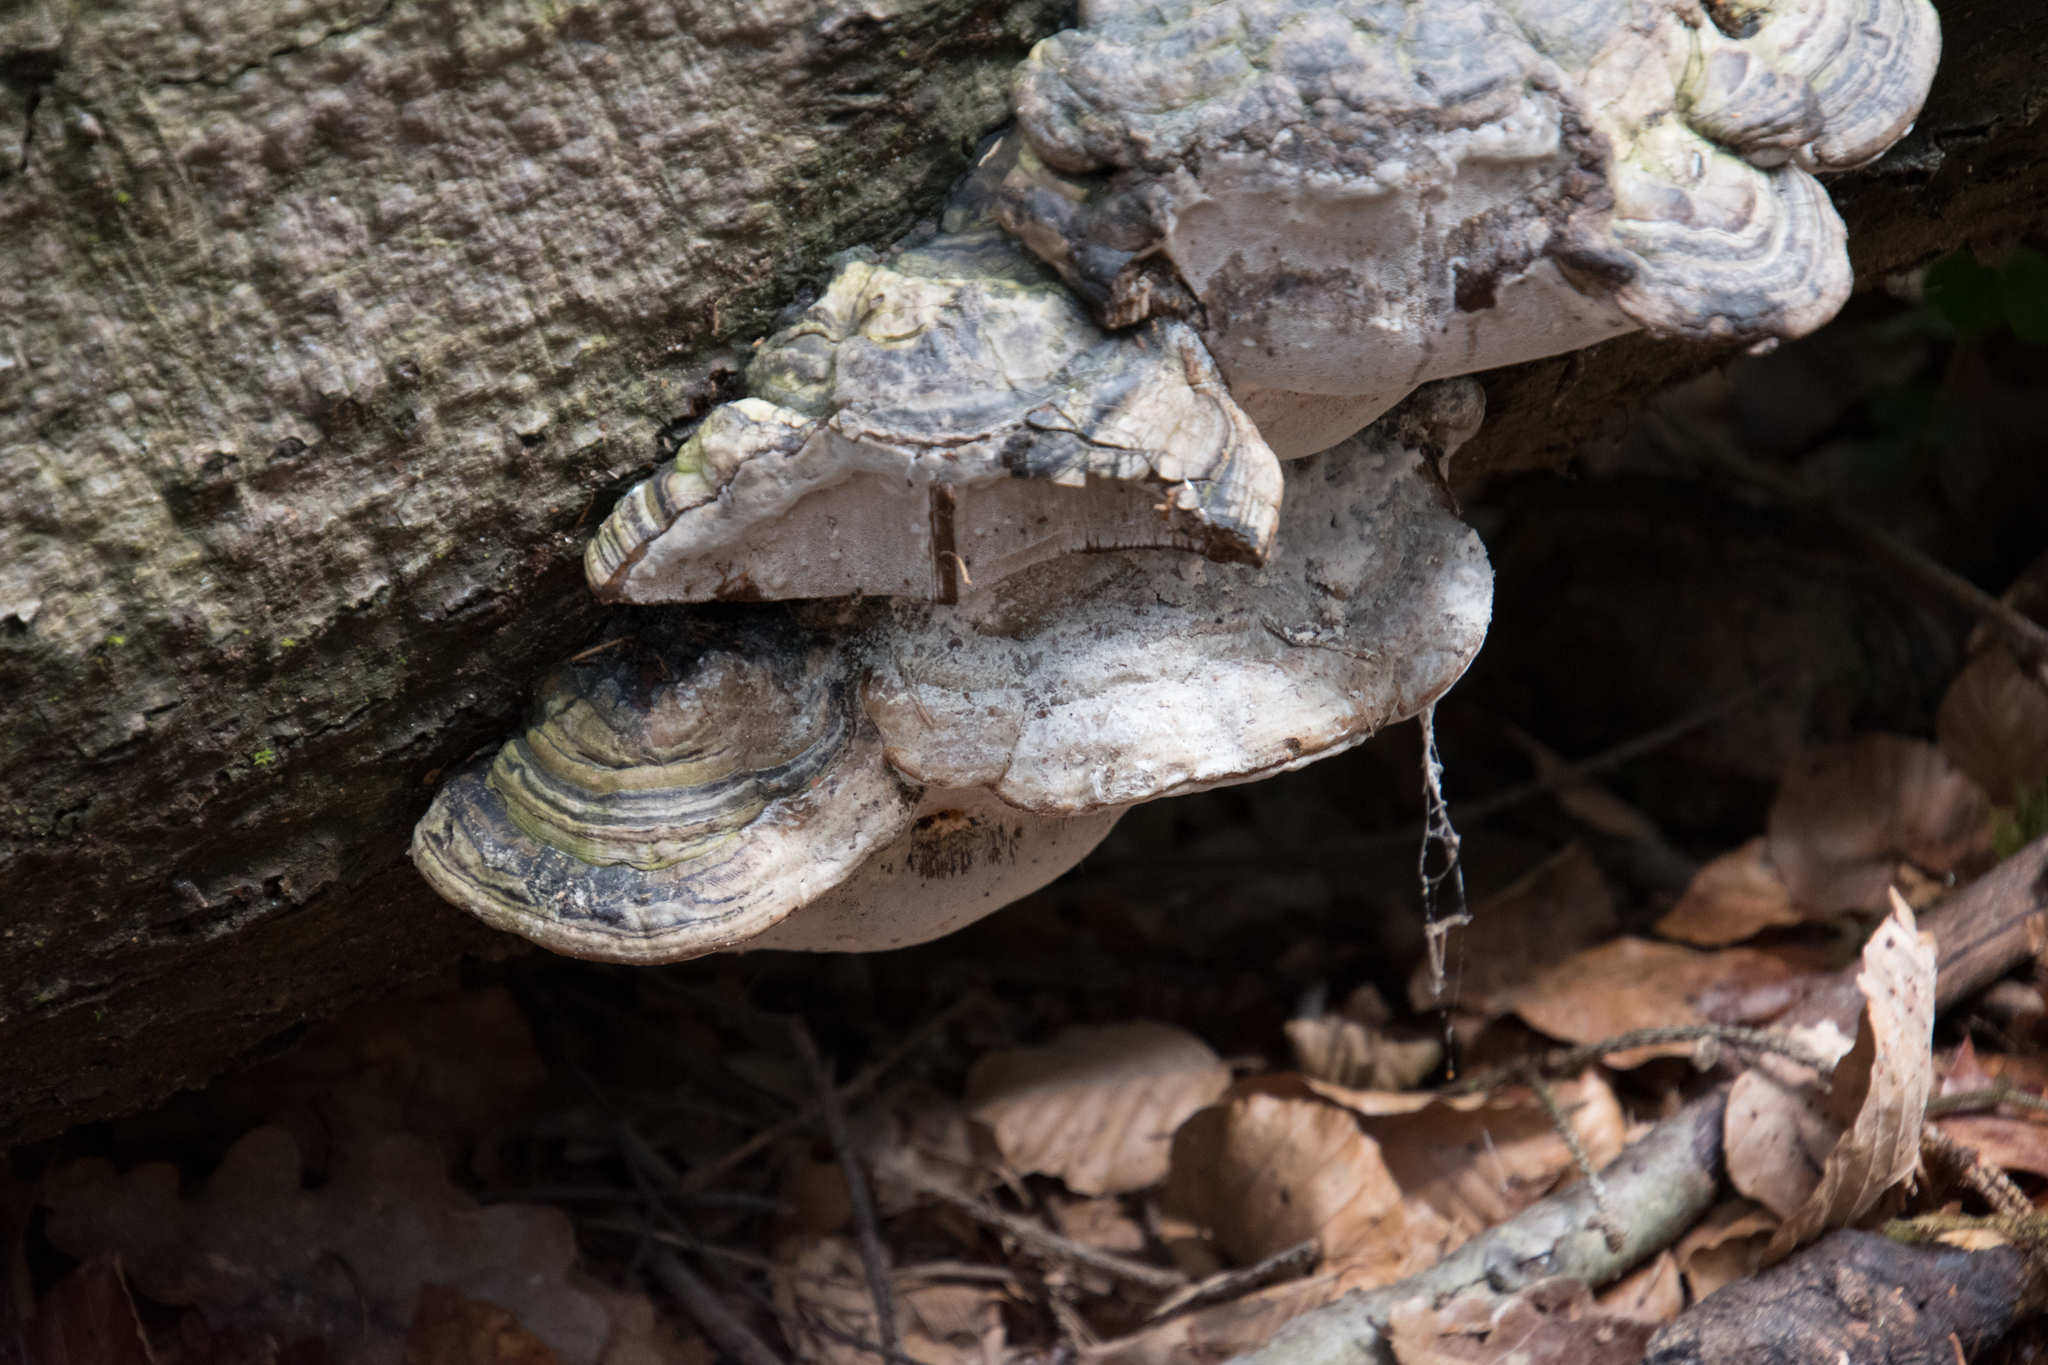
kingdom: Fungi
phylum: Basidiomycota
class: Agaricomycetes
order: Polyporales
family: Polyporaceae
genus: Fomes
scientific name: Fomes fomentarius
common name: Hoof fungus
